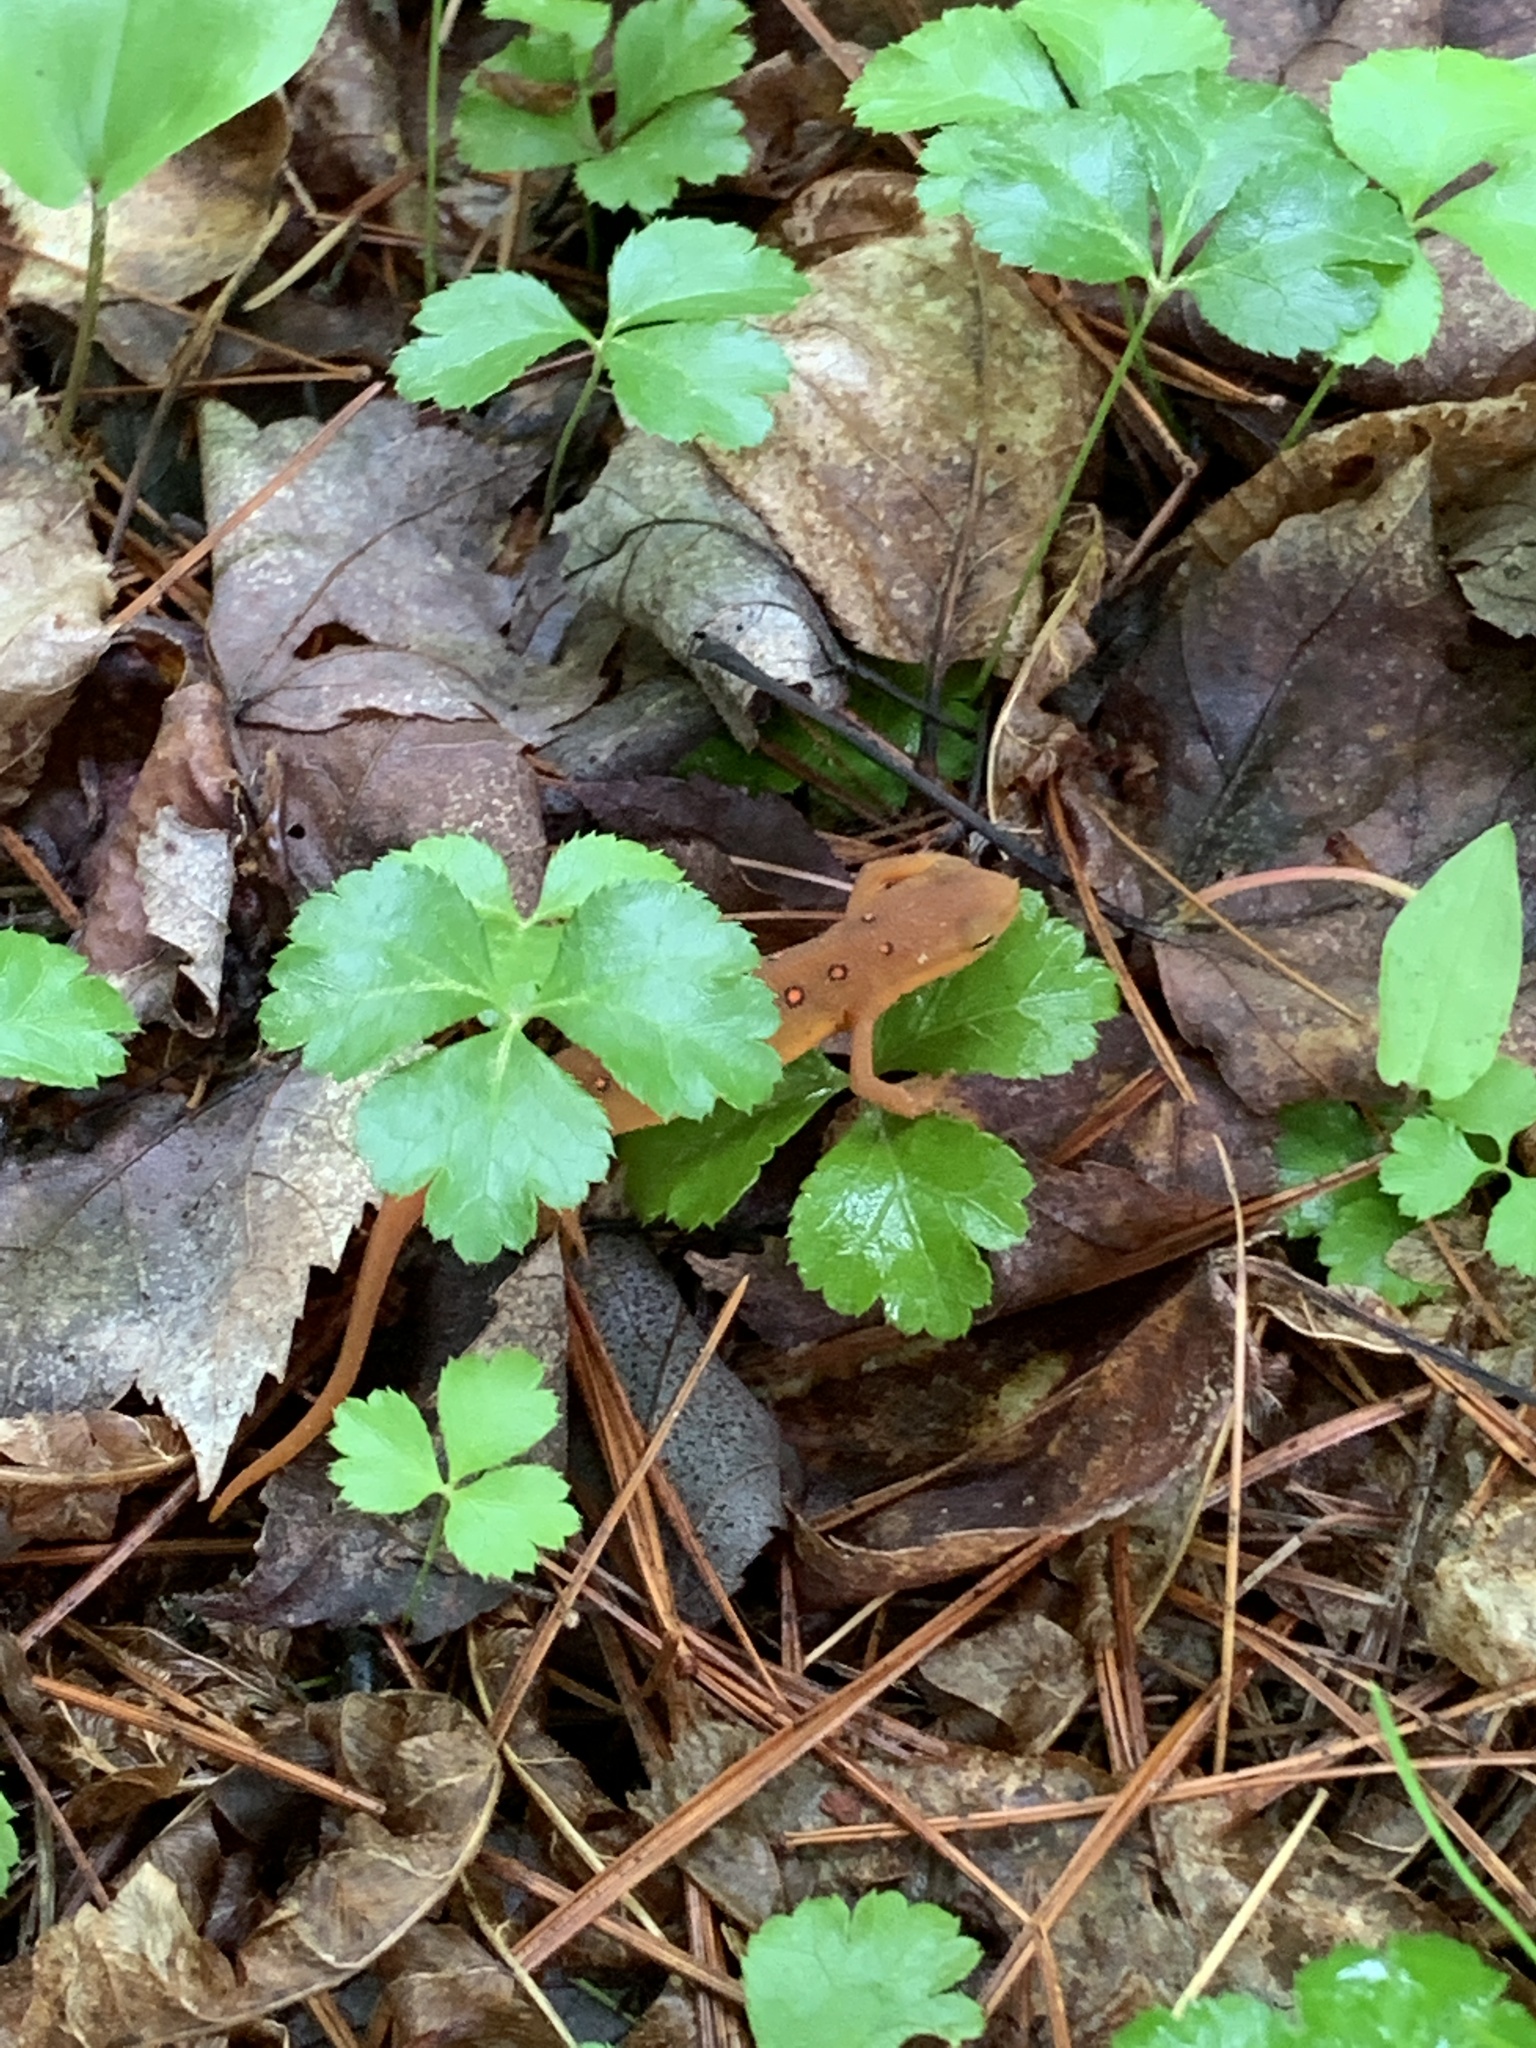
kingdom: Animalia
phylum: Chordata
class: Amphibia
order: Caudata
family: Salamandridae
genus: Notophthalmus
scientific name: Notophthalmus viridescens
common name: Eastern newt
